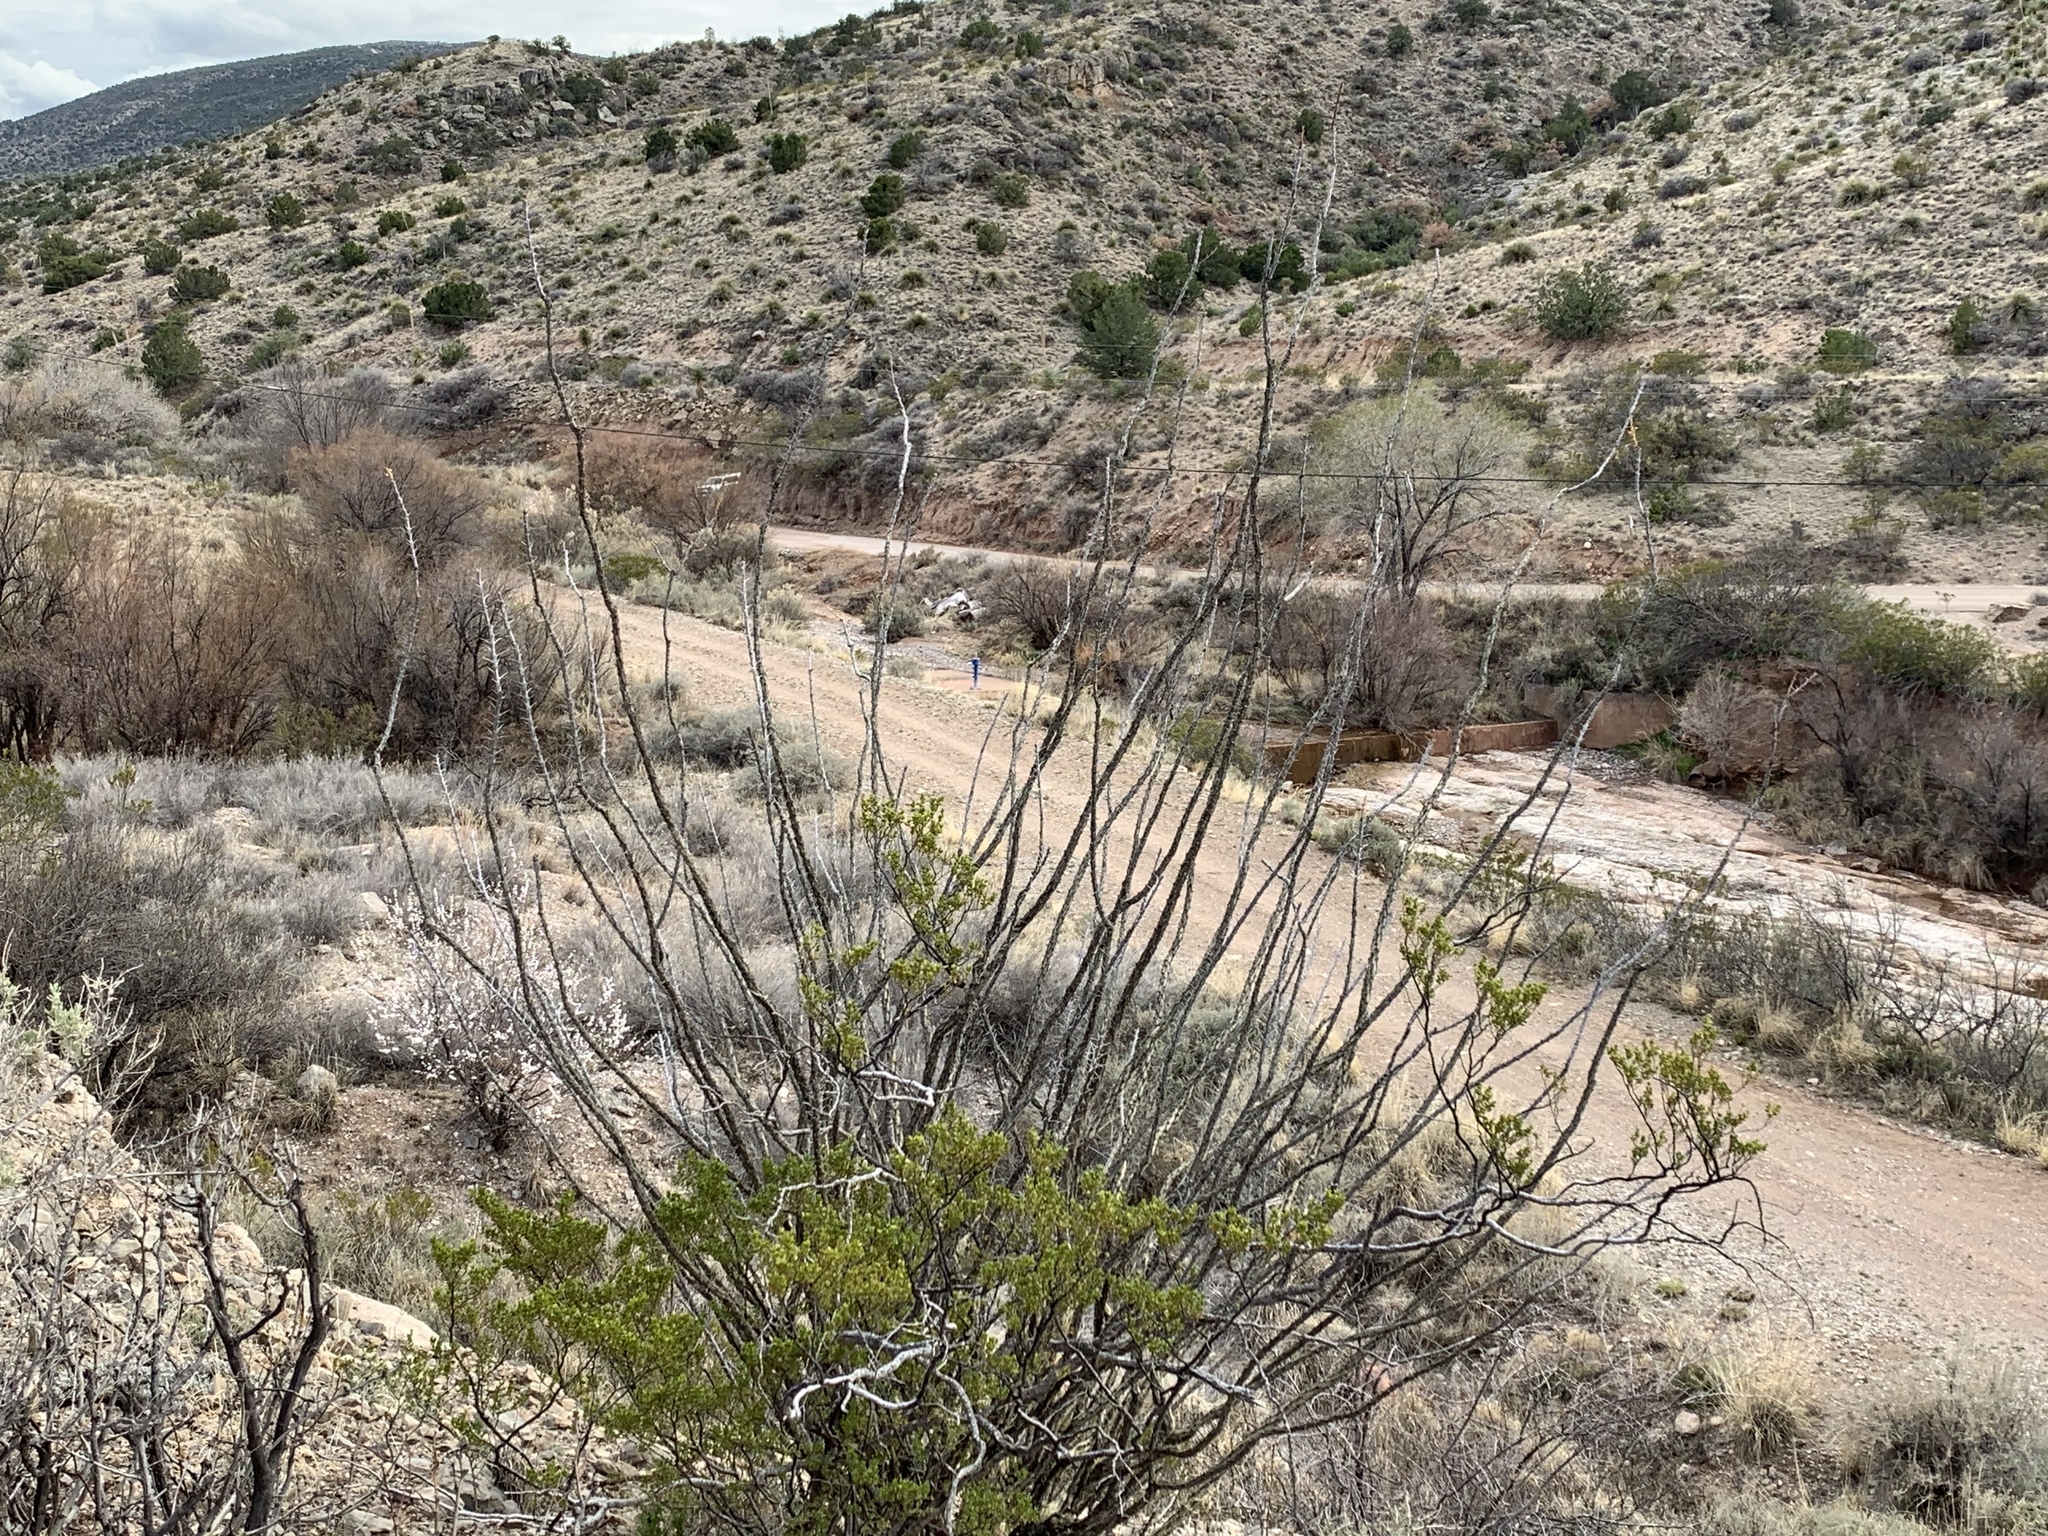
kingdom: Plantae
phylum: Tracheophyta
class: Magnoliopsida
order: Ericales
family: Fouquieriaceae
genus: Fouquieria
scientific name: Fouquieria splendens
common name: Vine-cactus
